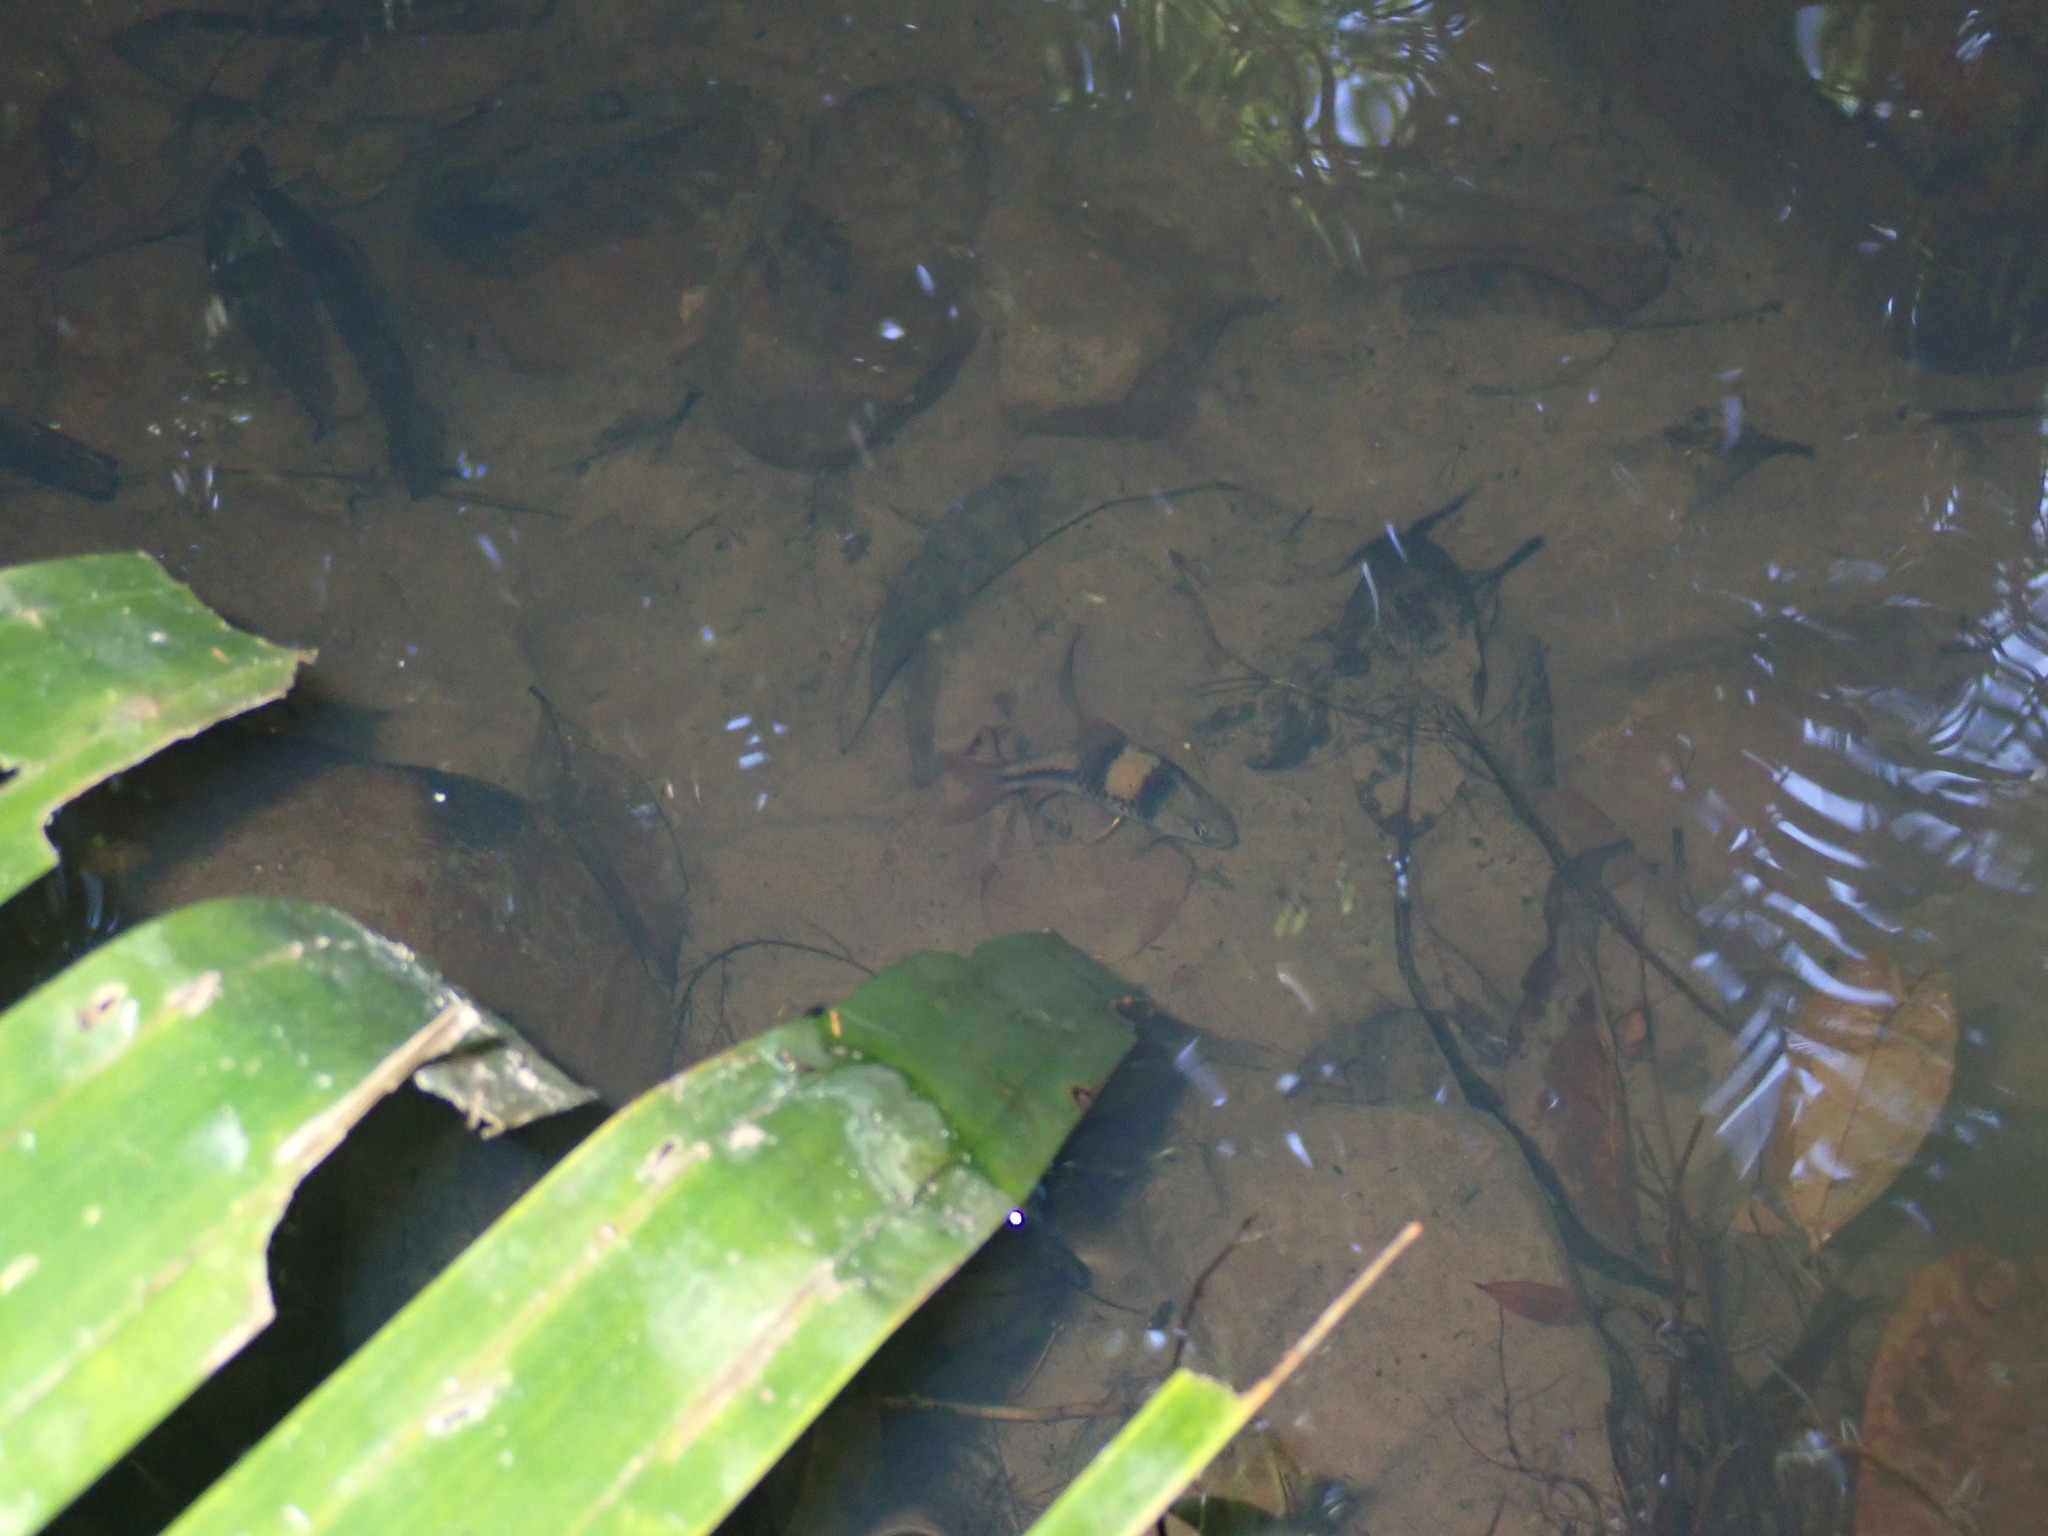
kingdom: Animalia
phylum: Chordata
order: Cypriniformes
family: Cyprinidae
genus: Barbodes
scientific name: Barbodes lateristriga
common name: Spanner barb
